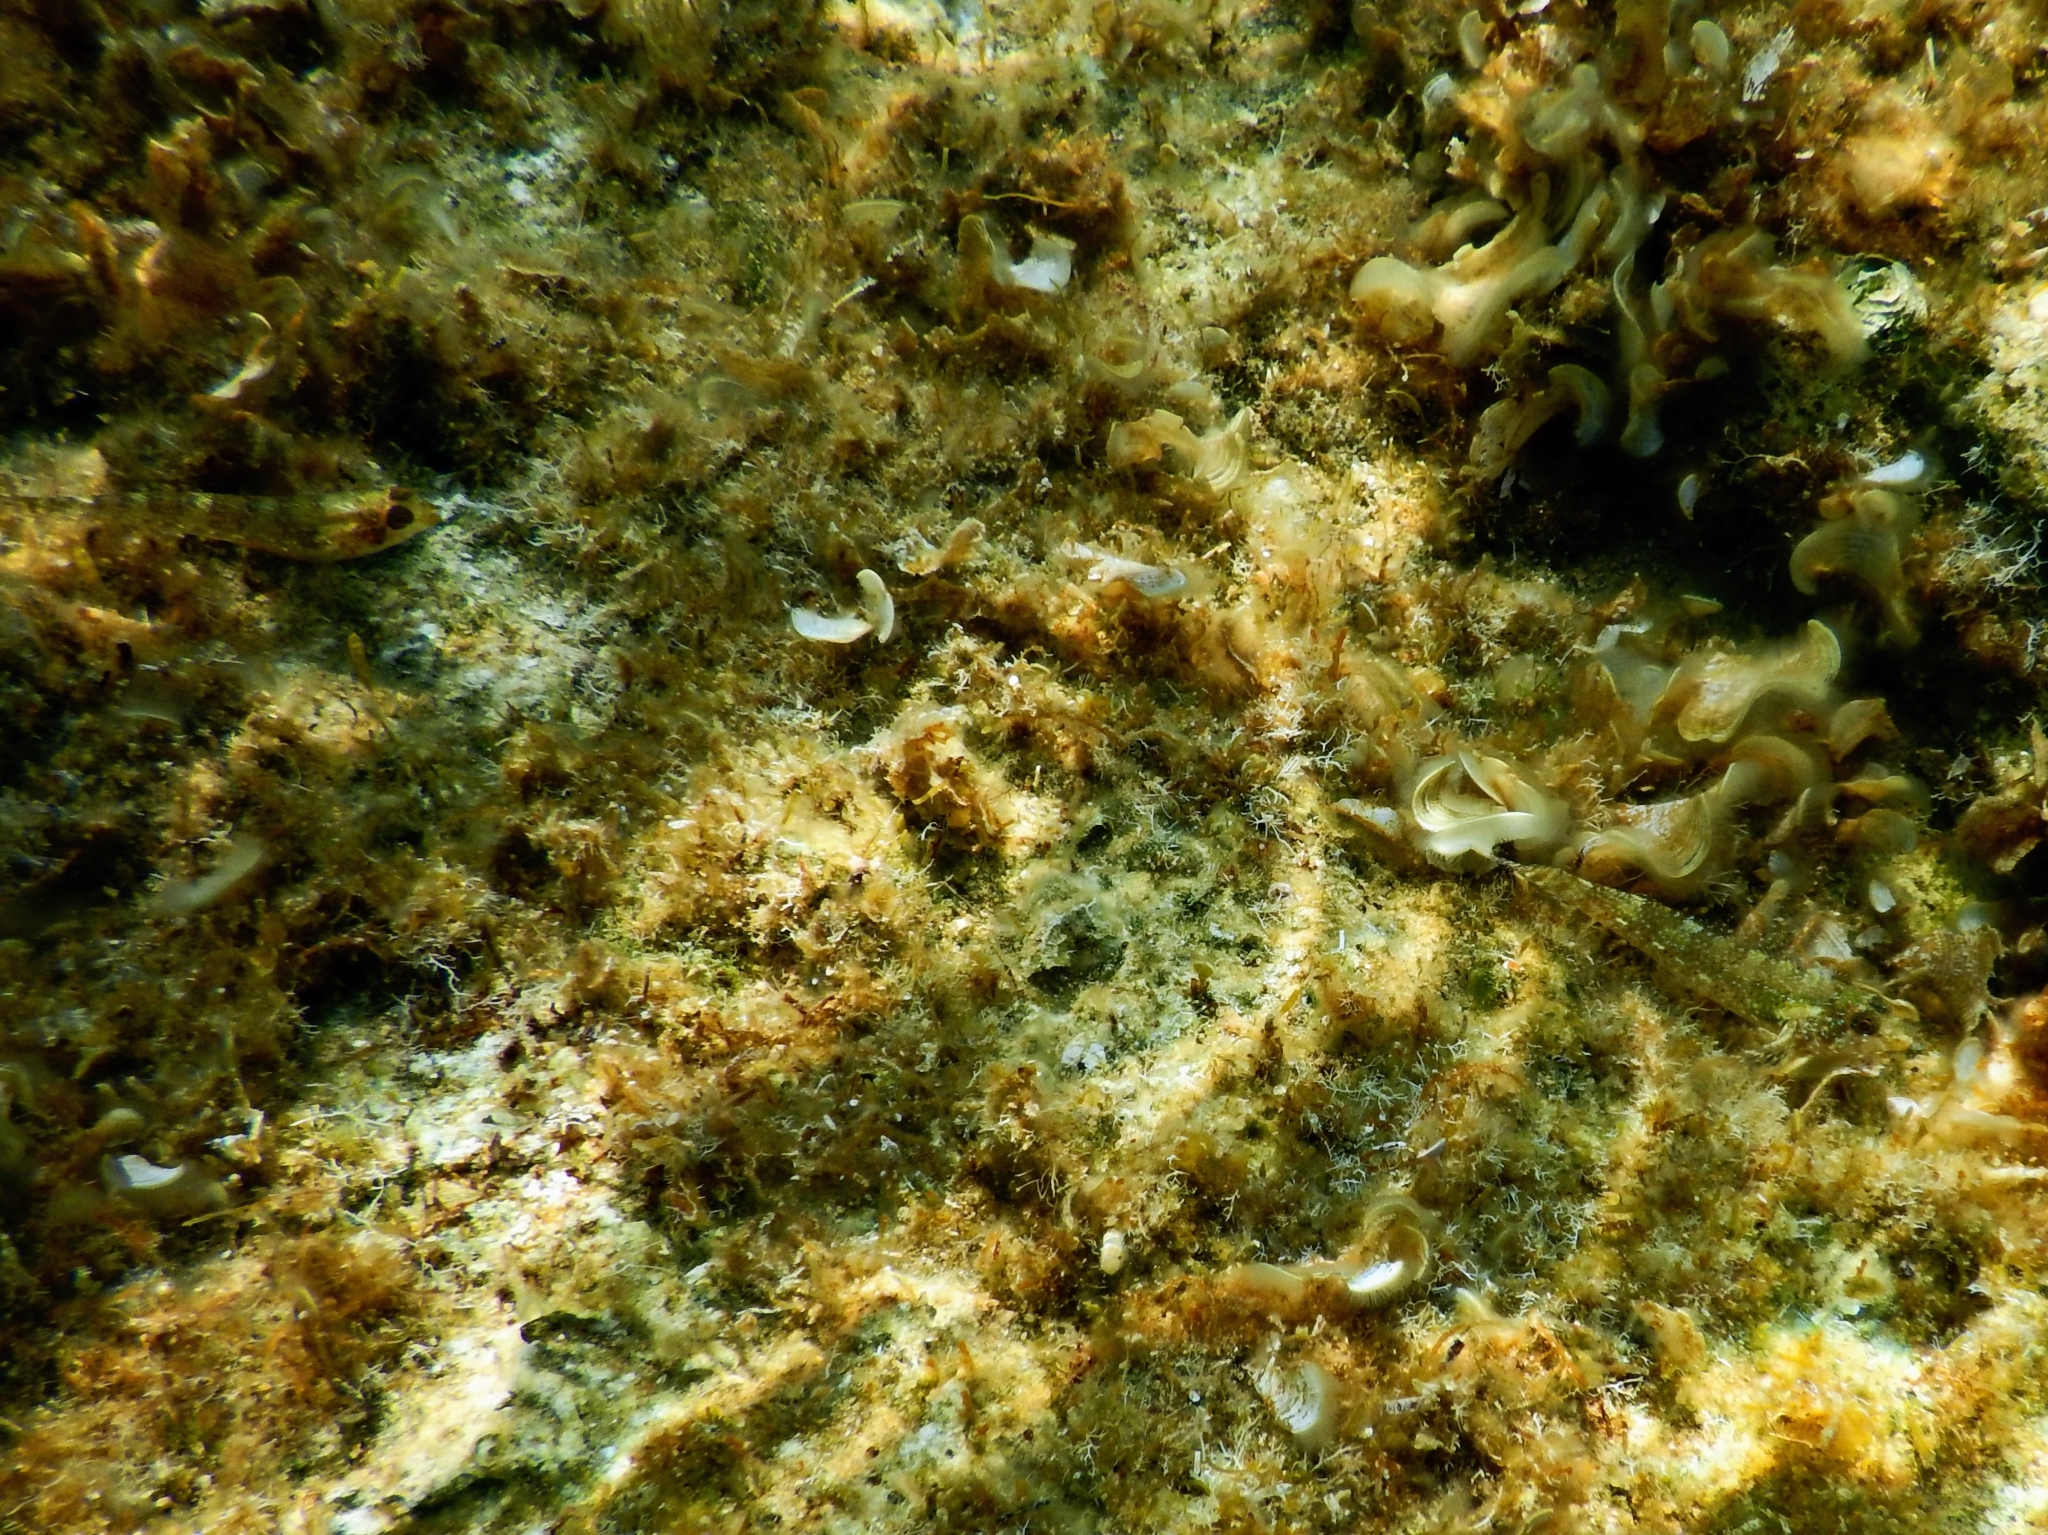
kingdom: Animalia
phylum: Chordata
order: Perciformes
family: Tripterygiidae
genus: Tripterygion
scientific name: Tripterygion tripteronotum
